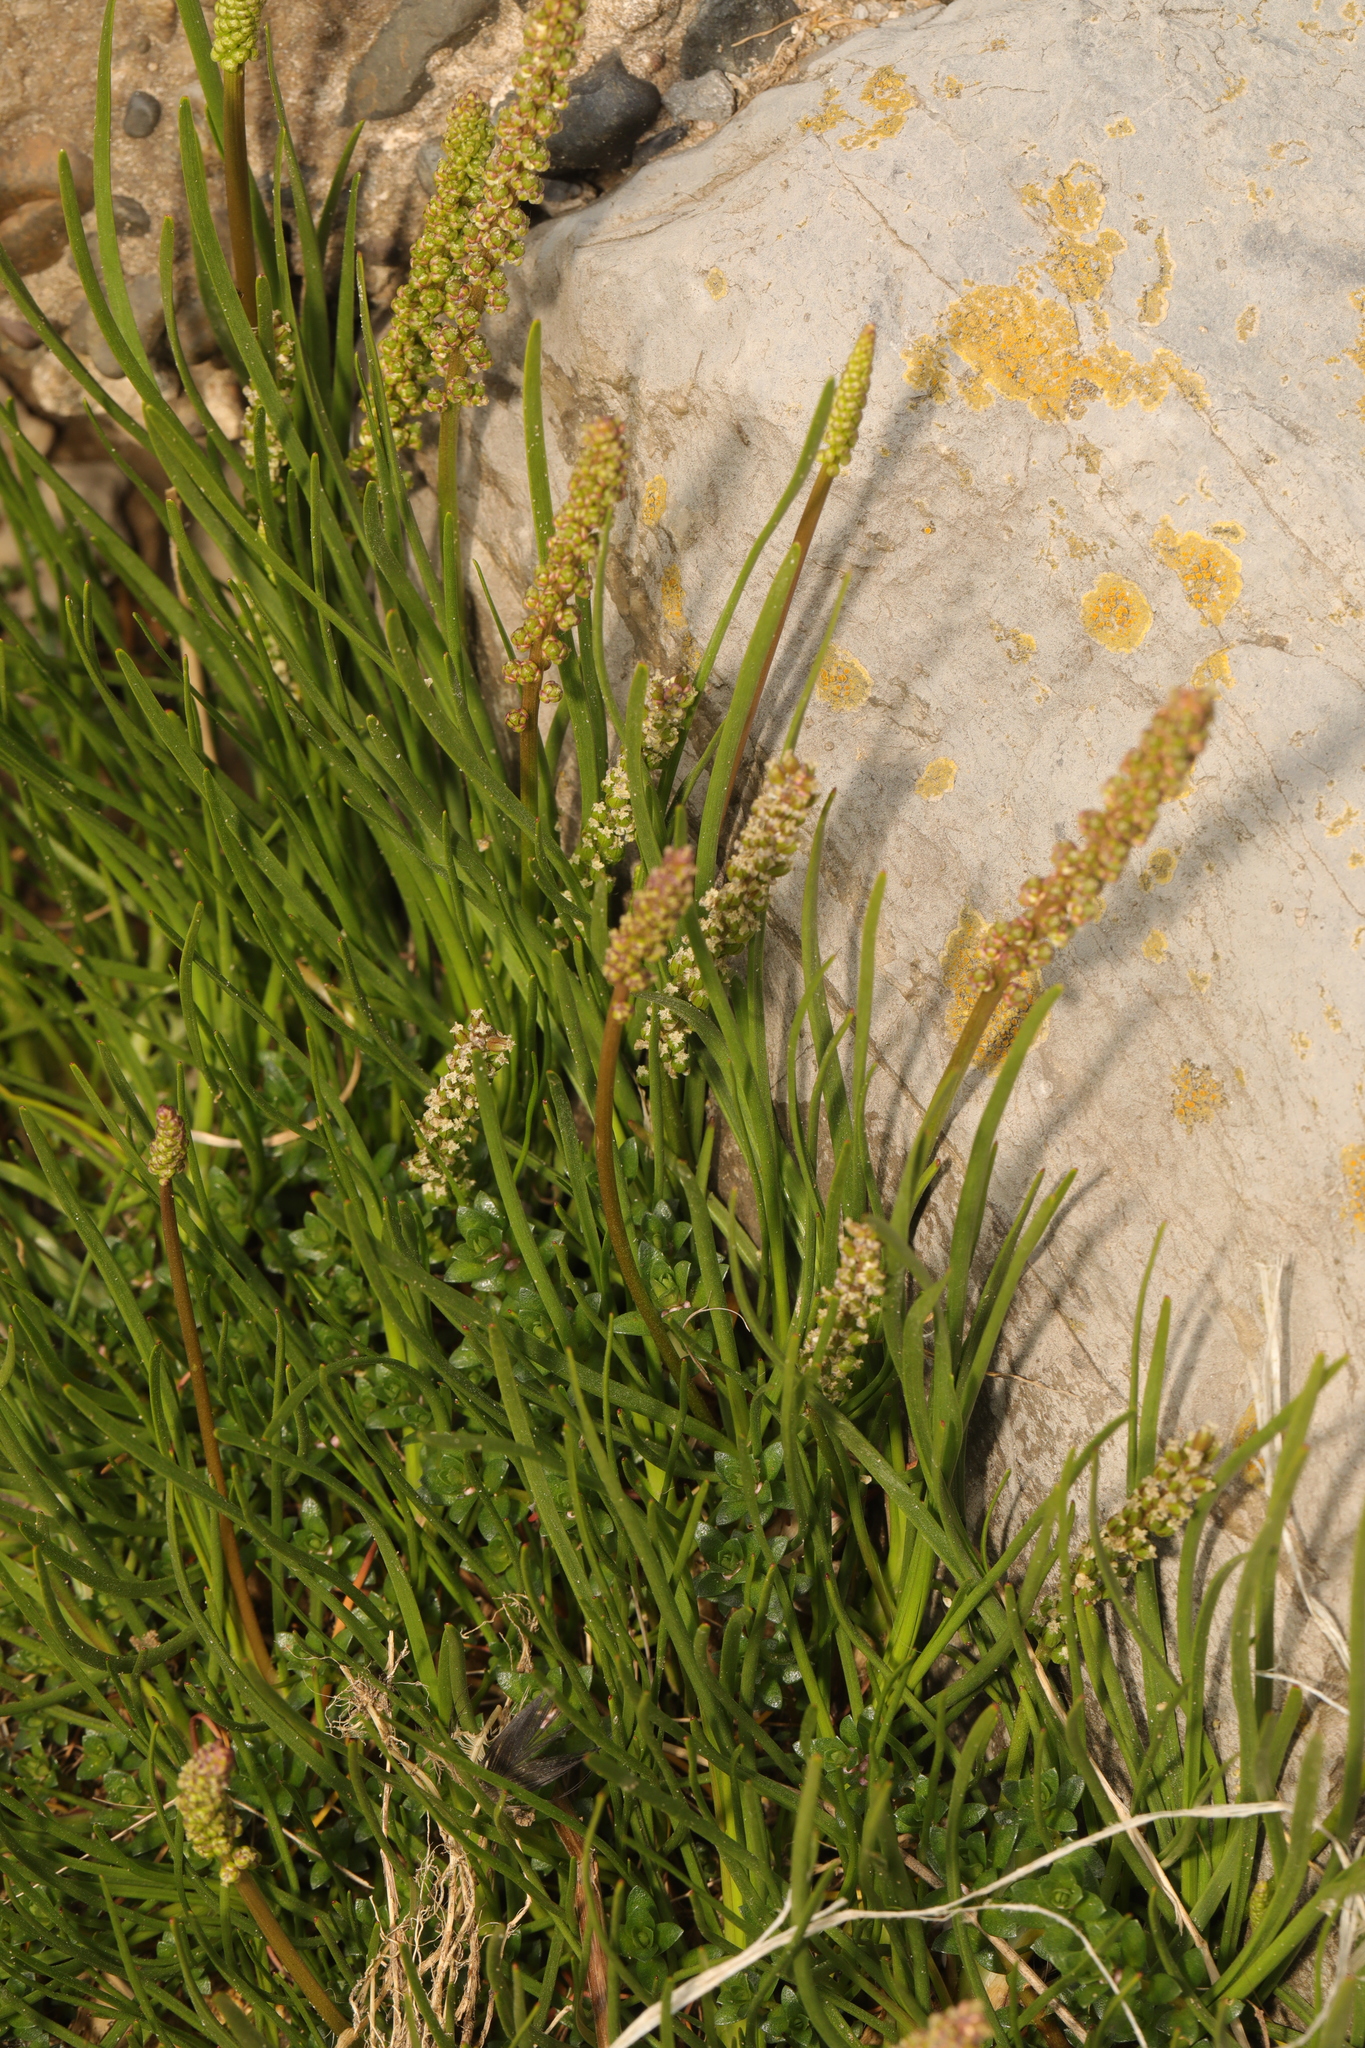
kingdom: Plantae
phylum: Tracheophyta
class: Magnoliopsida
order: Lamiales
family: Plantaginaceae
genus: Plantago
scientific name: Plantago maritima
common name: Sea plantain
